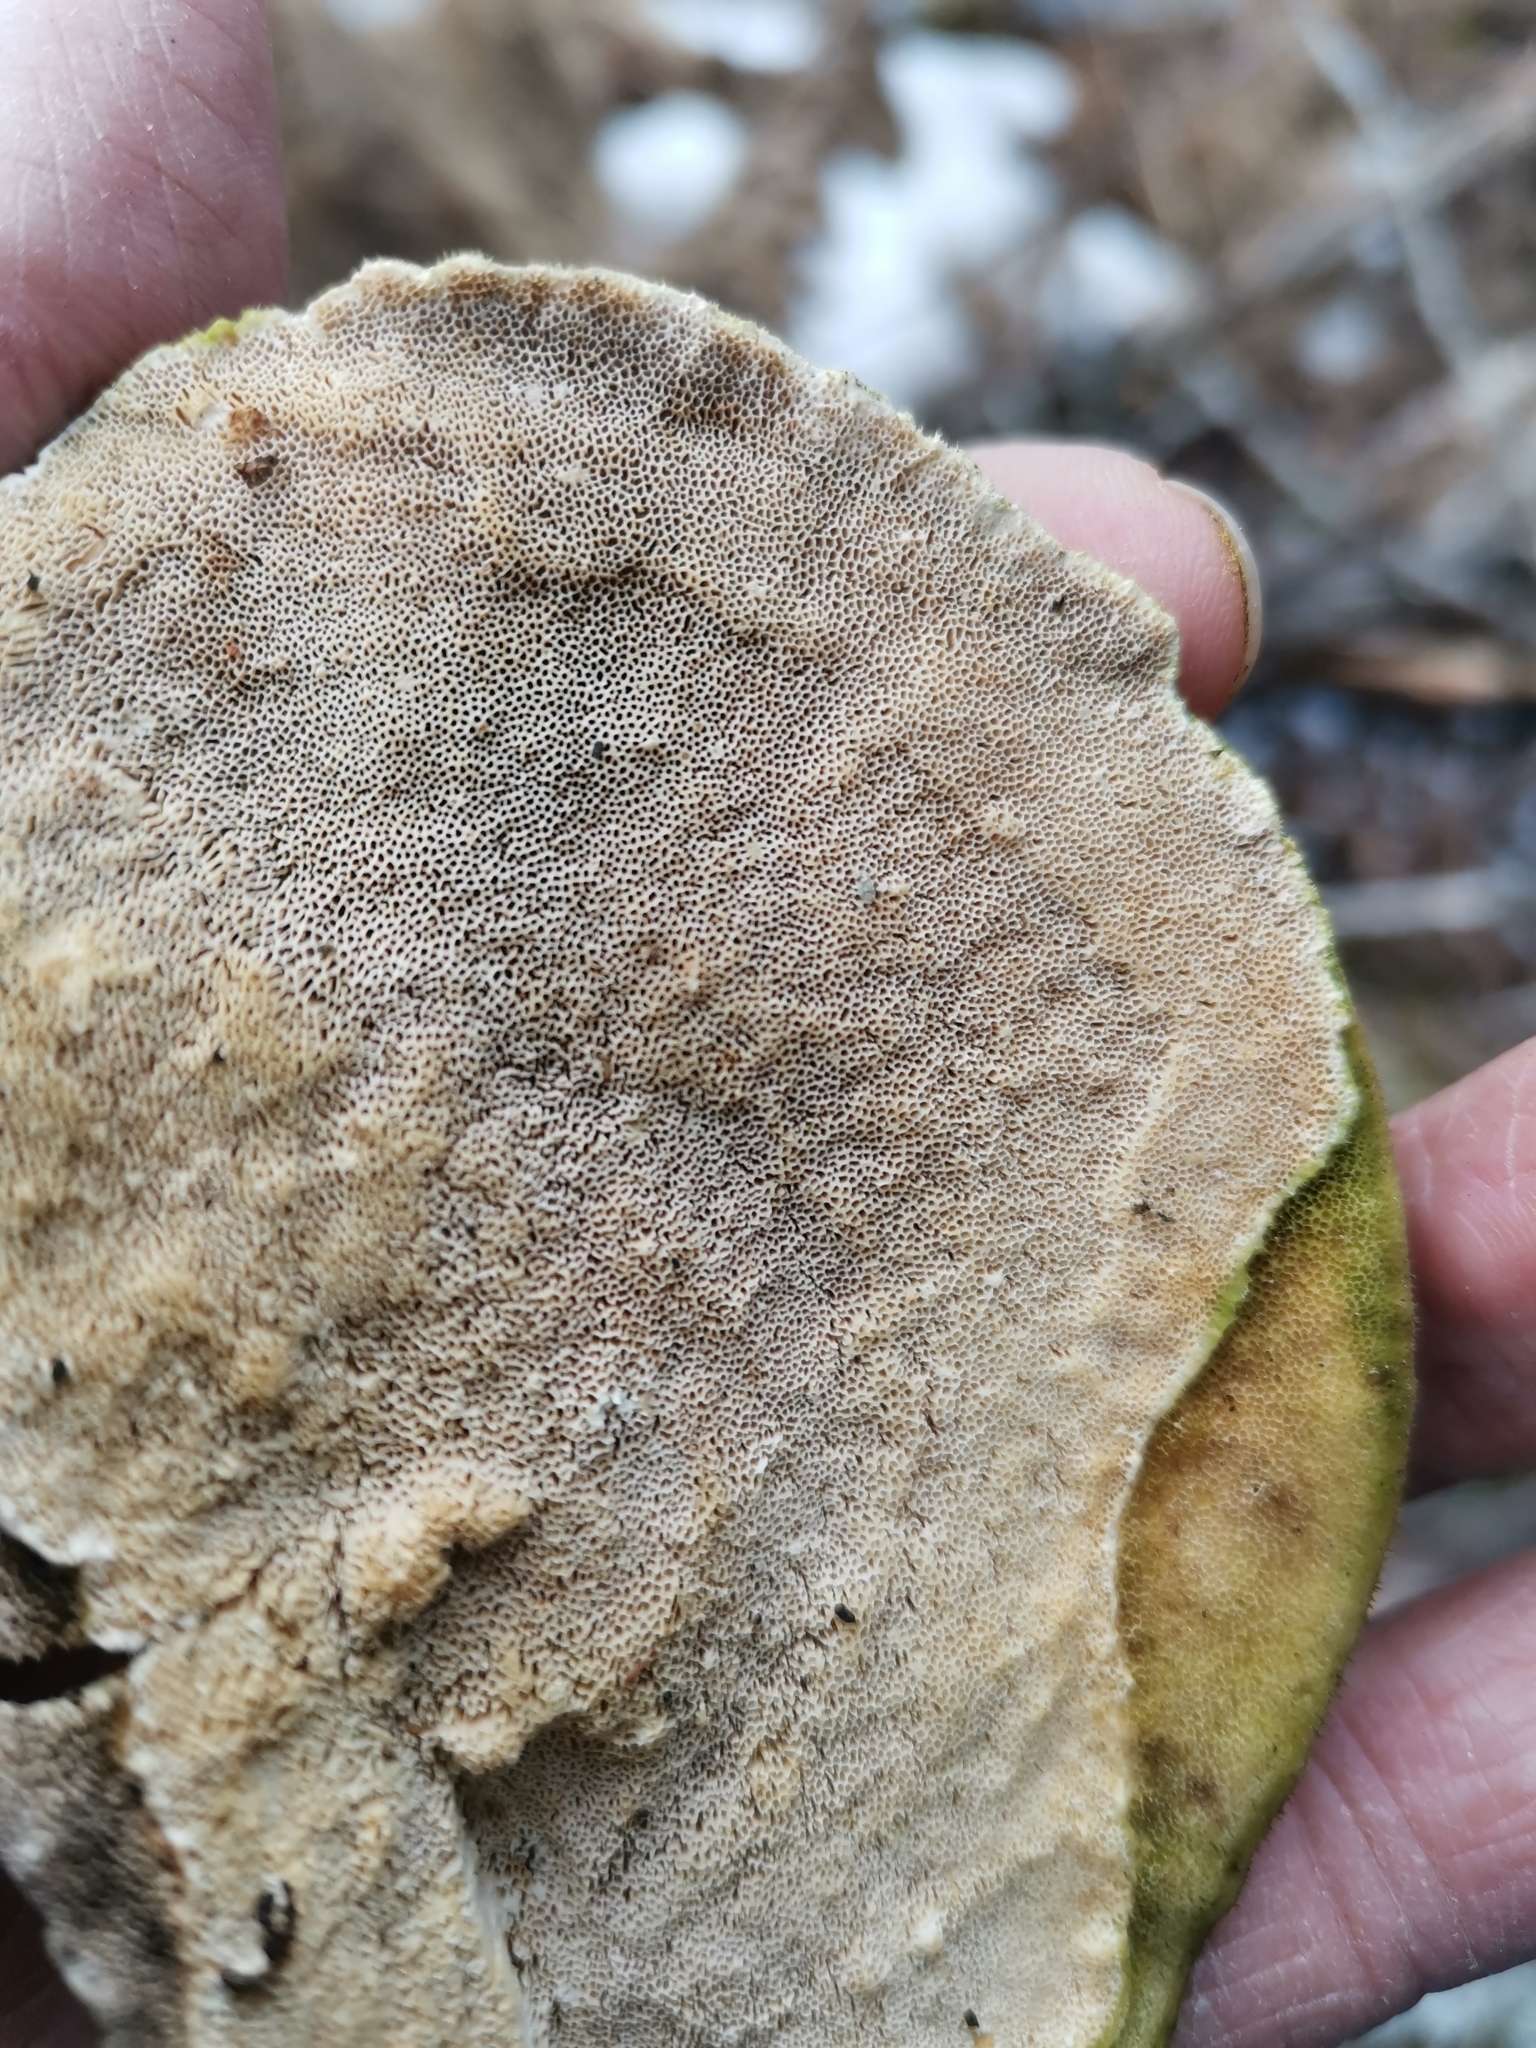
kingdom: Fungi
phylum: Basidiomycota
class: Agaricomycetes
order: Polyporales
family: Polyporaceae
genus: Trametes
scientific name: Trametes hirsuta
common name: Hairy bracket
